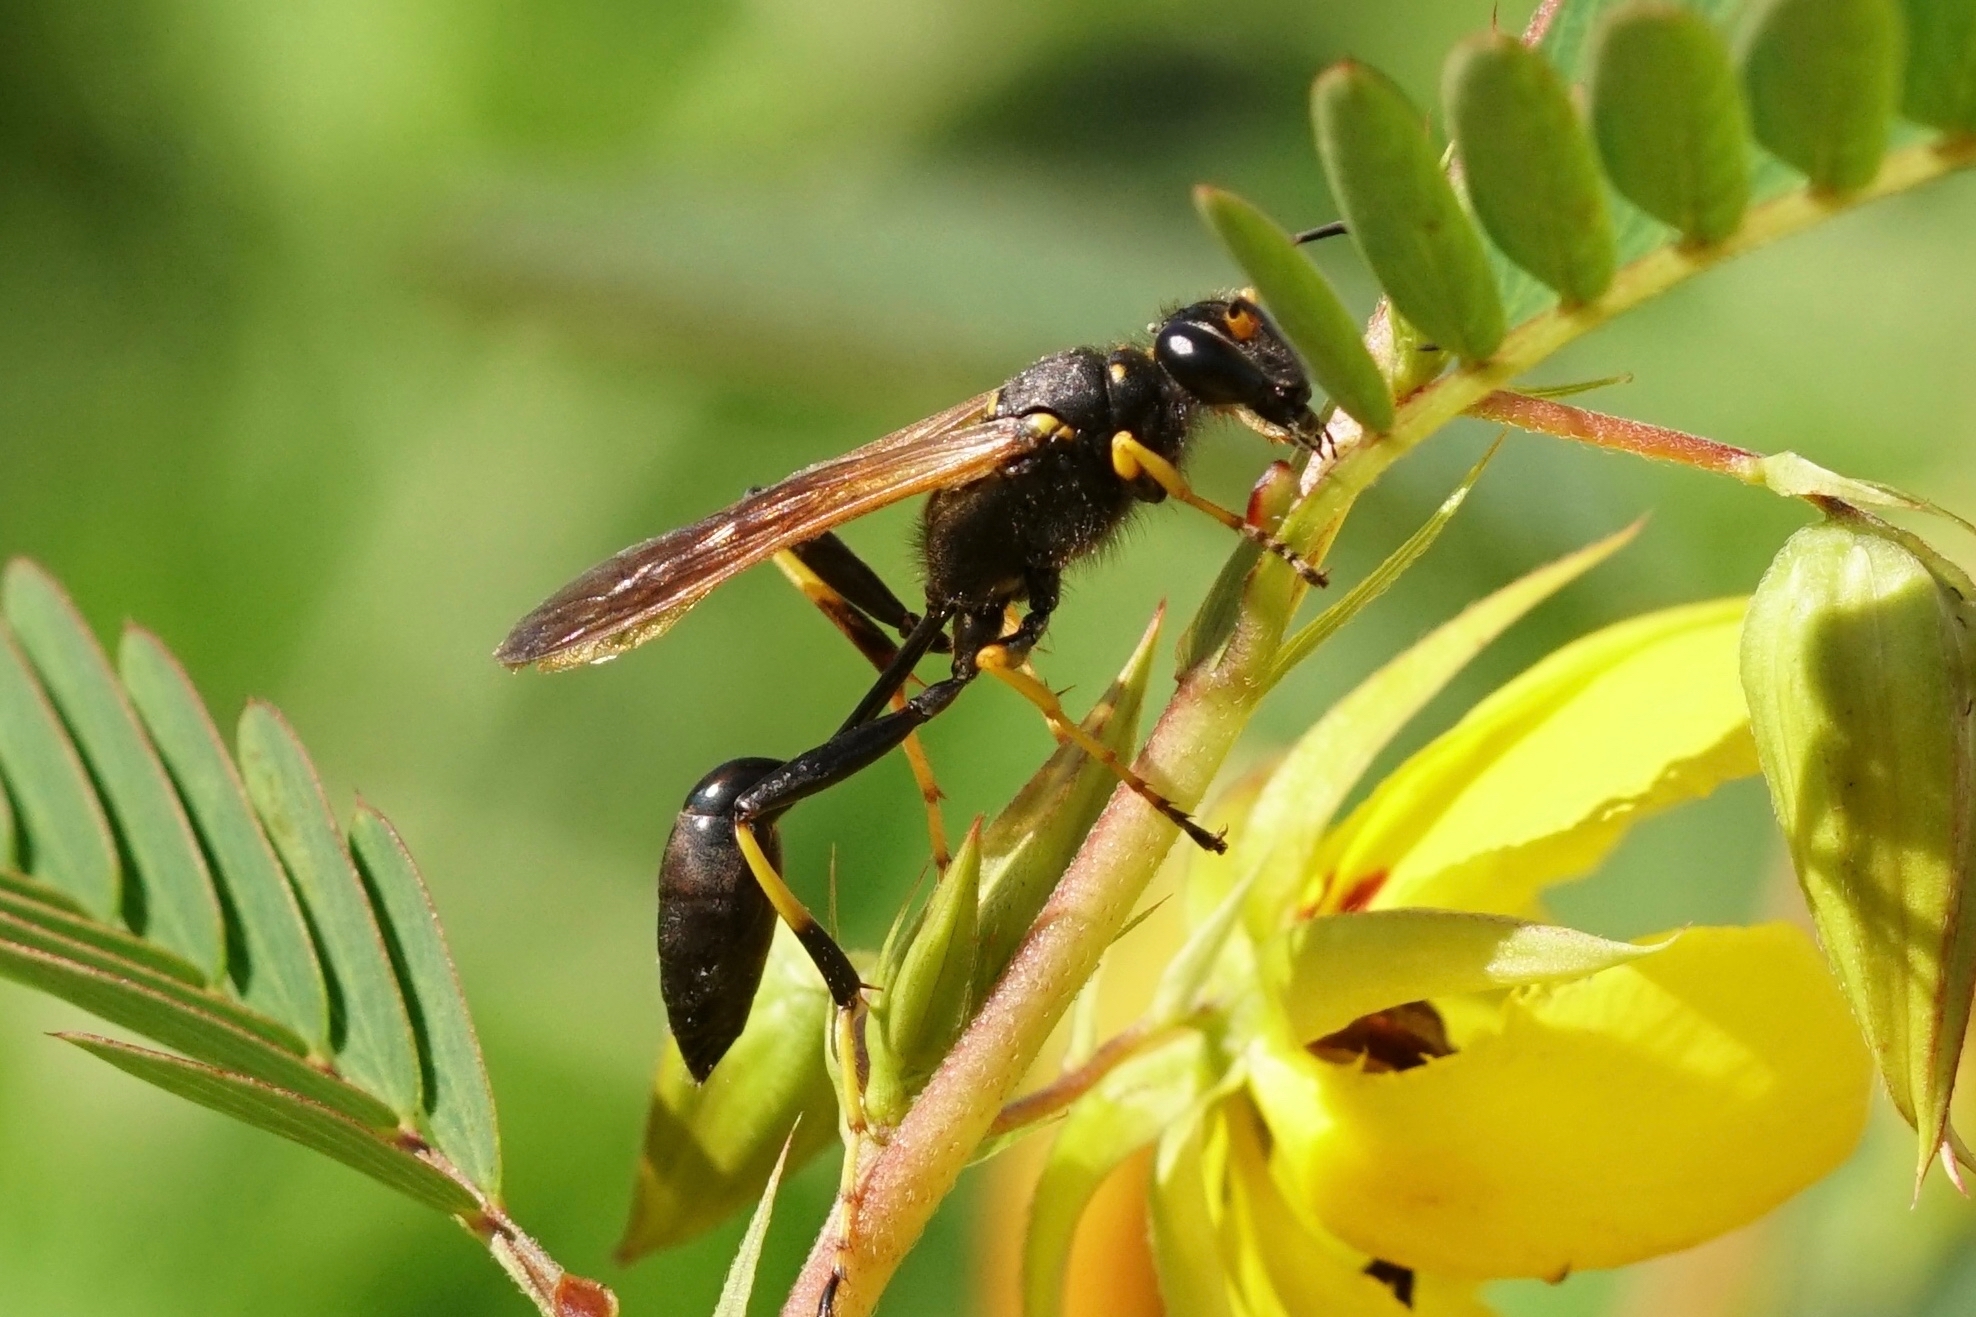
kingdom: Animalia
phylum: Arthropoda
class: Insecta
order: Hymenoptera
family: Sphecidae
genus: Sceliphron
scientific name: Sceliphron caementarium
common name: Mud dauber
